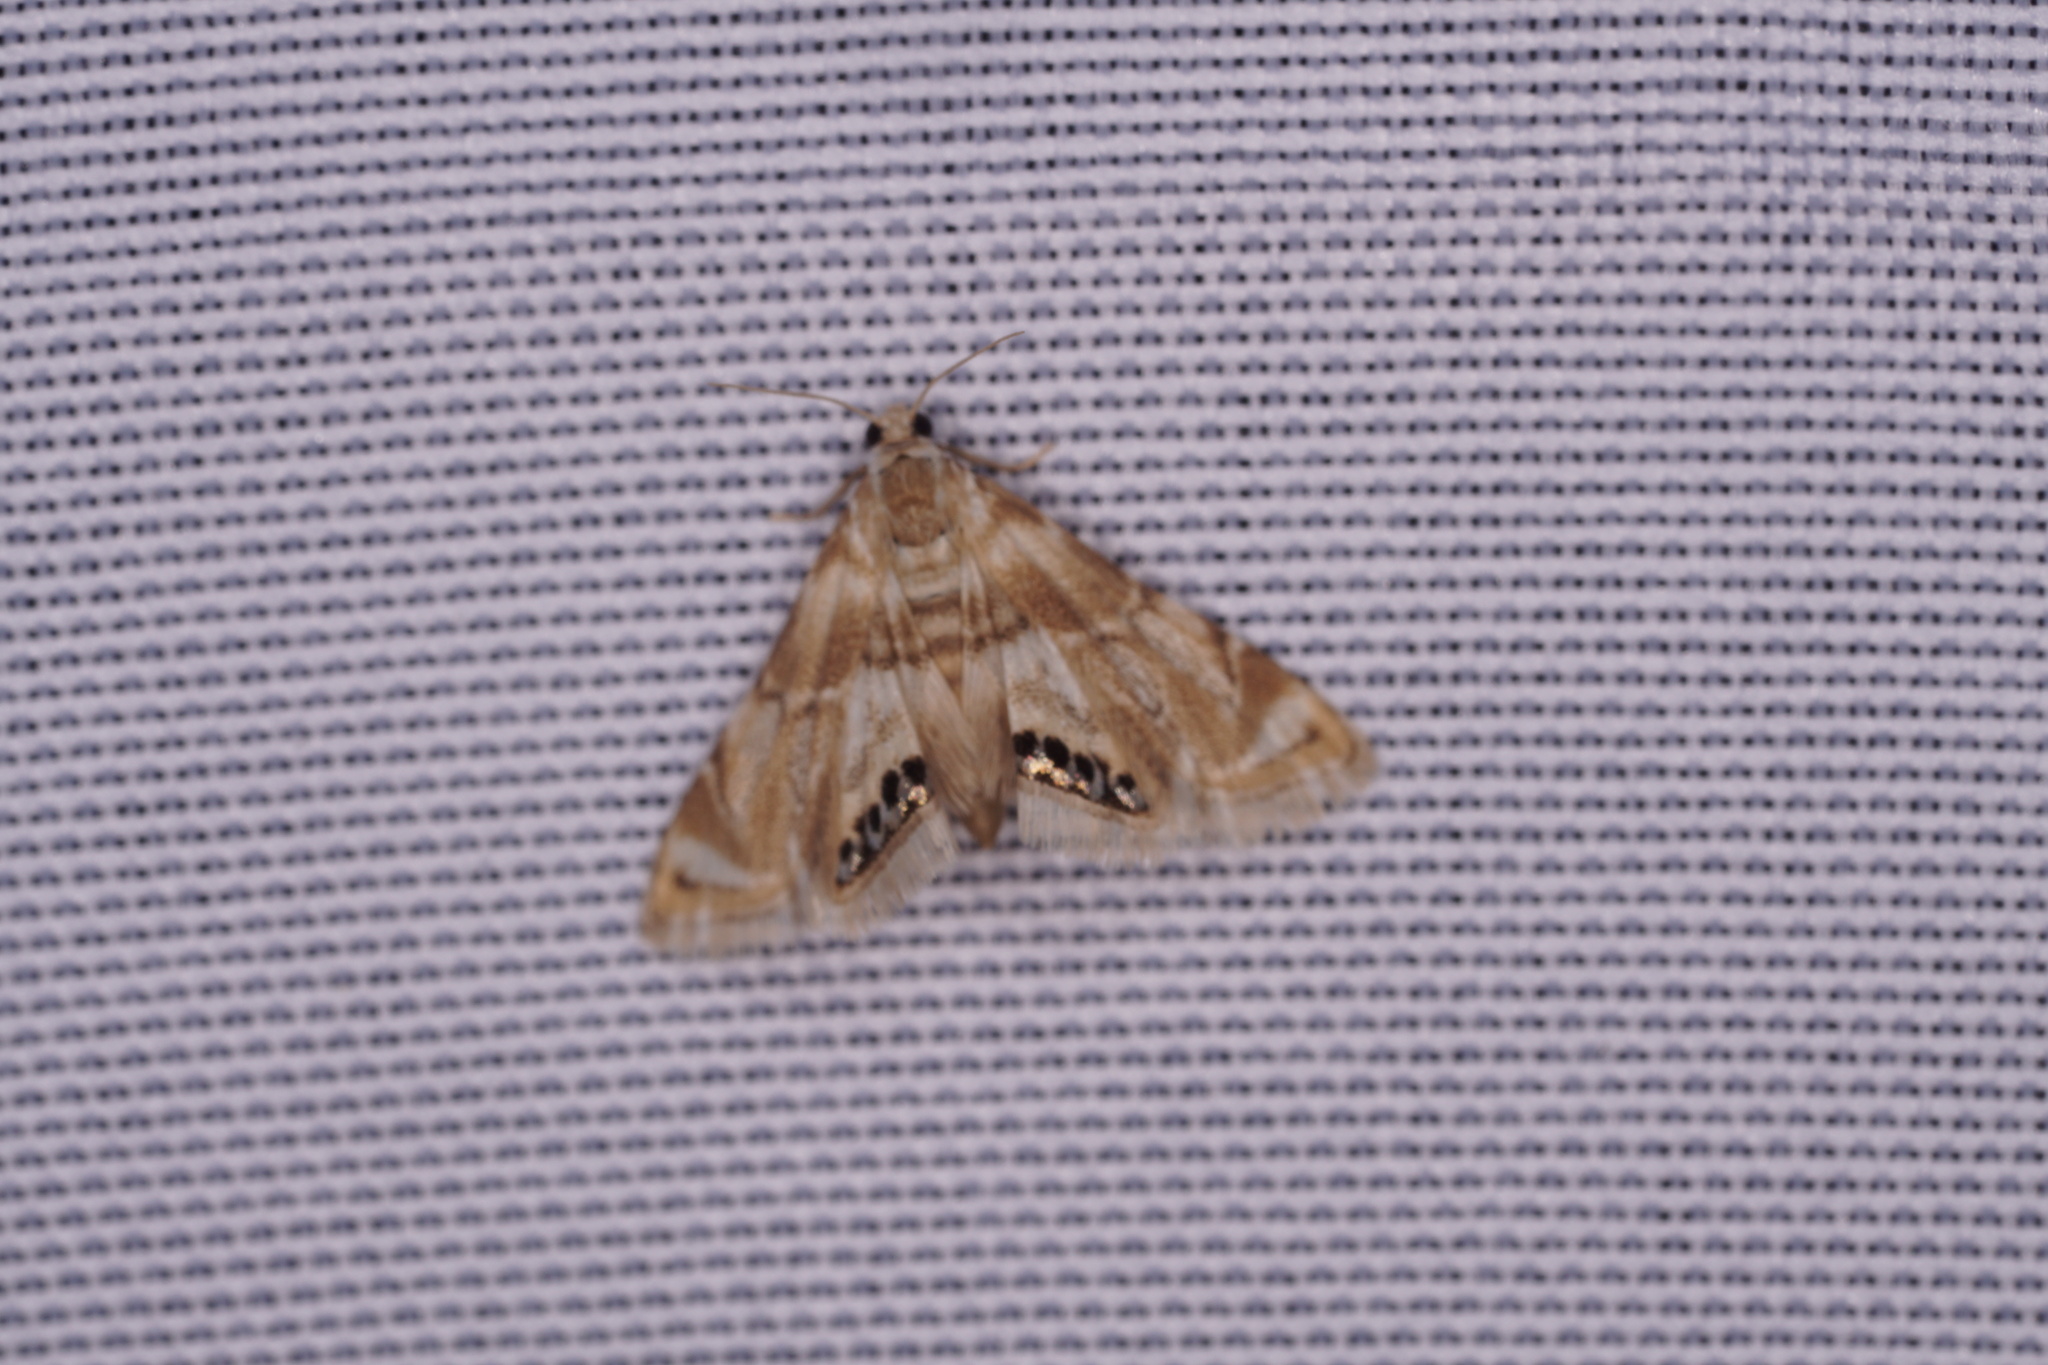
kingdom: Animalia
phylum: Arthropoda
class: Insecta
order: Lepidoptera
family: Crambidae
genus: Eoparargyractis
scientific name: Eoparargyractis plevie
